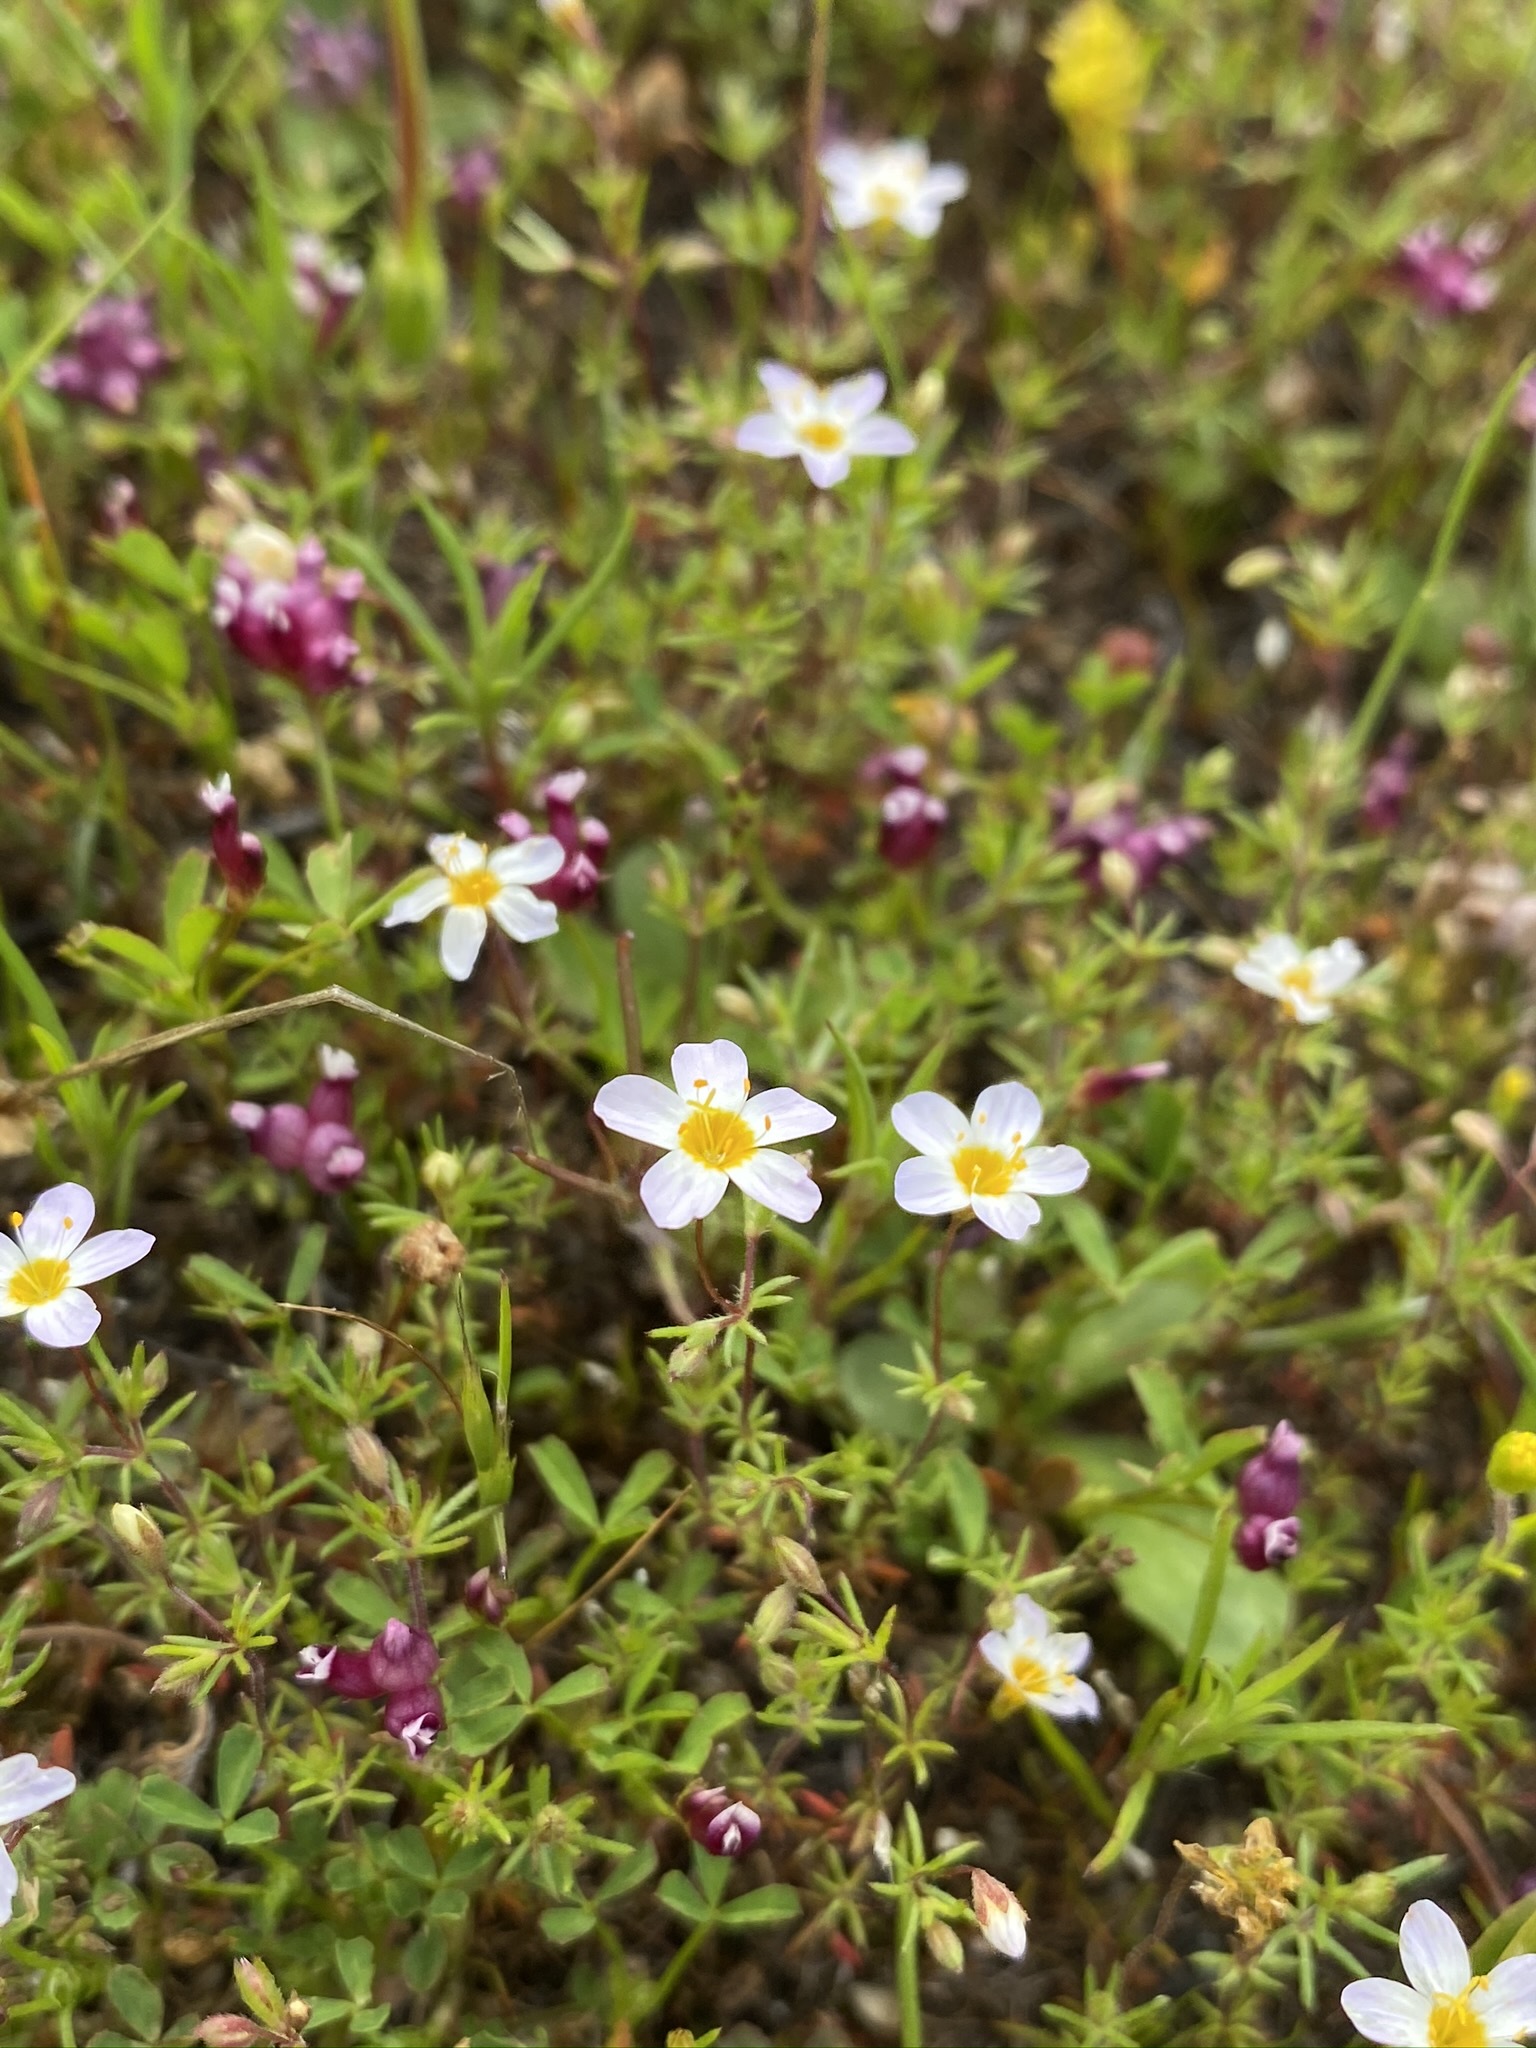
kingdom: Plantae
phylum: Tracheophyta
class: Magnoliopsida
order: Ericales
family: Polemoniaceae
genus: Leptosiphon
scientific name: Leptosiphon filipes
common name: Thread linanthus
